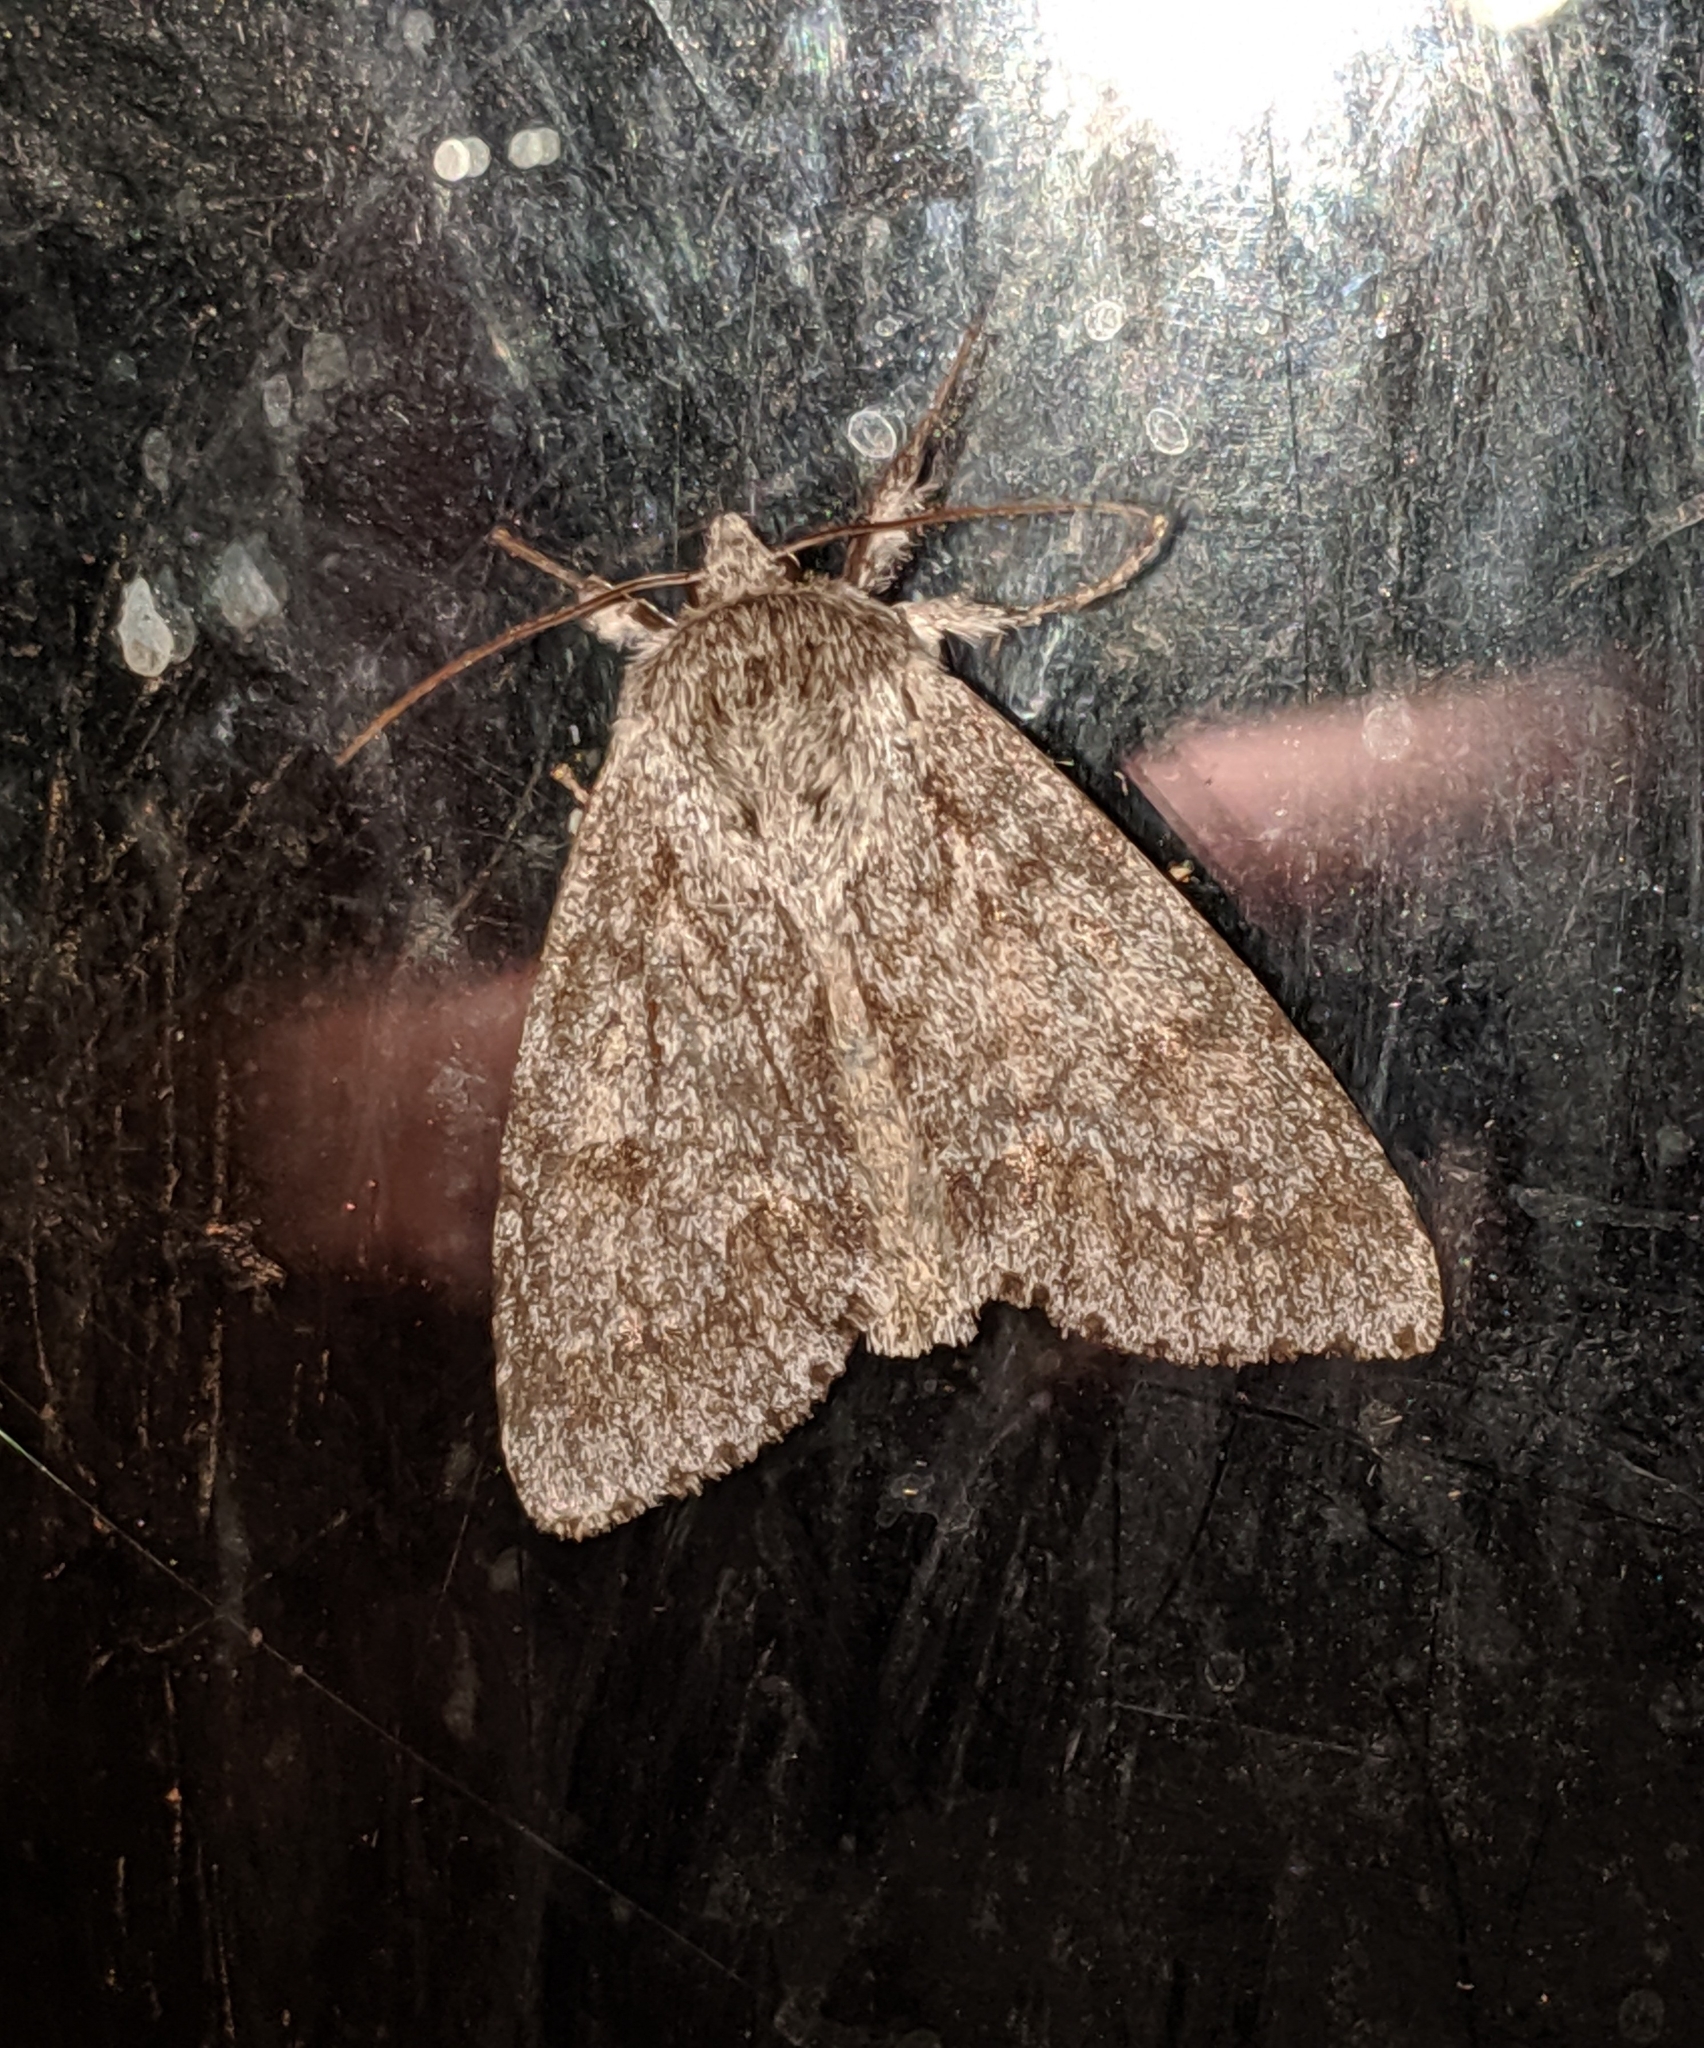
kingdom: Animalia
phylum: Arthropoda
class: Insecta
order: Lepidoptera
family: Noctuidae
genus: Acronicta
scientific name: Acronicta insita
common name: Large gray dagger
